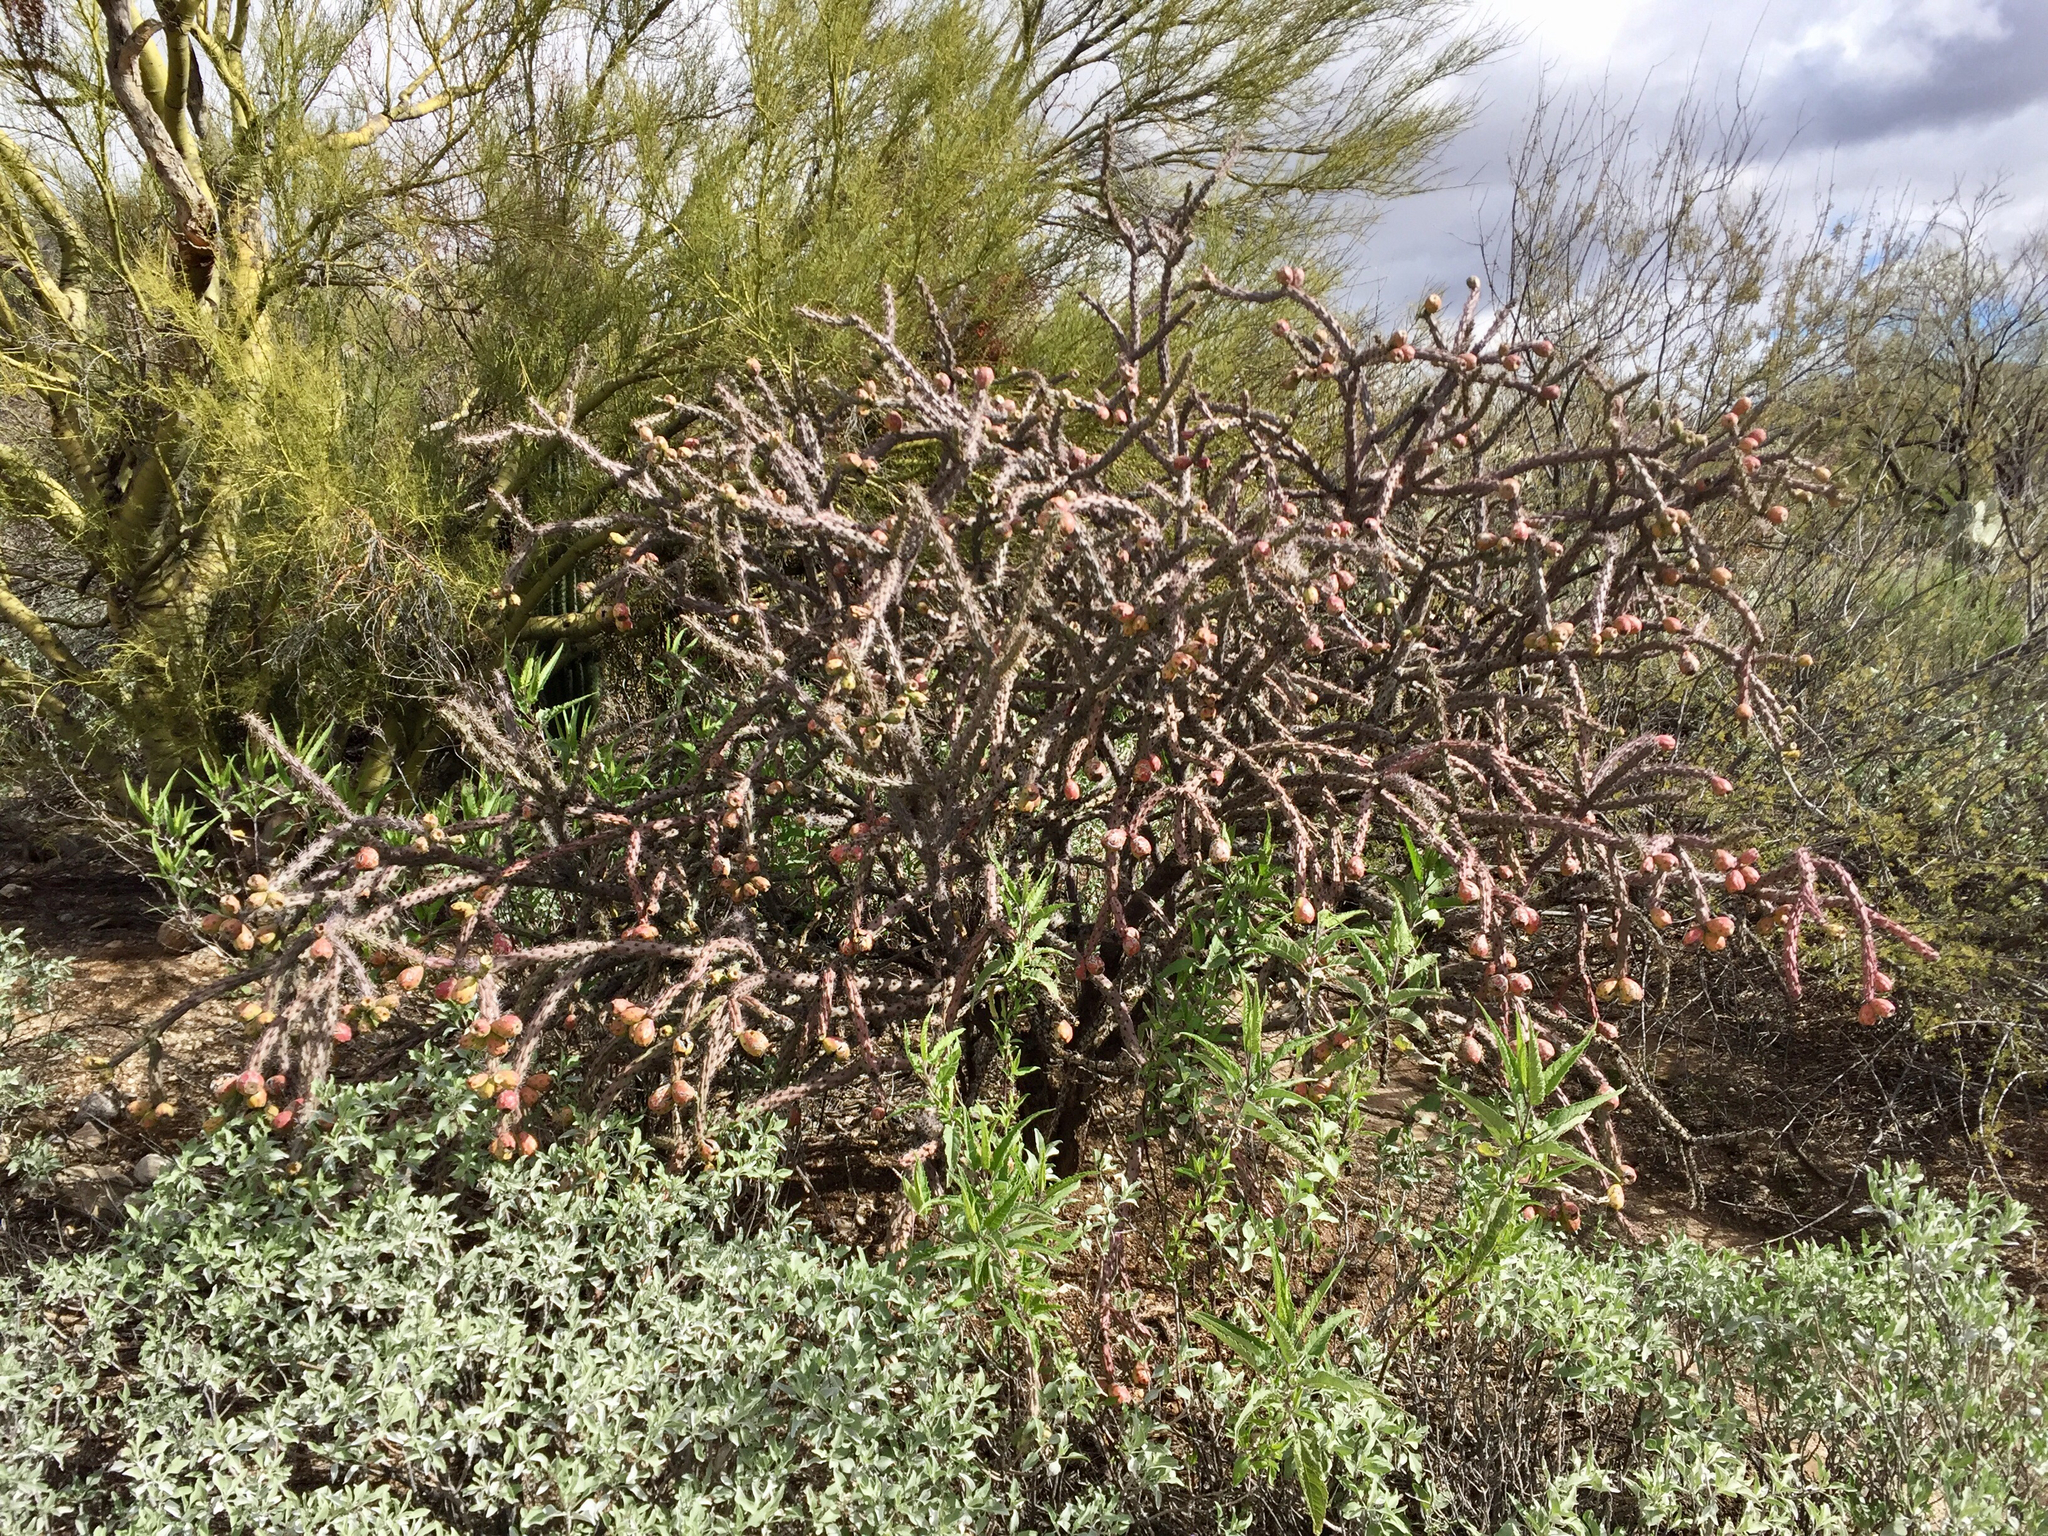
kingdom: Plantae
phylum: Tracheophyta
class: Magnoliopsida
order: Caryophyllales
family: Cactaceae
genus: Cylindropuntia
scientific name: Cylindropuntia thurberi
